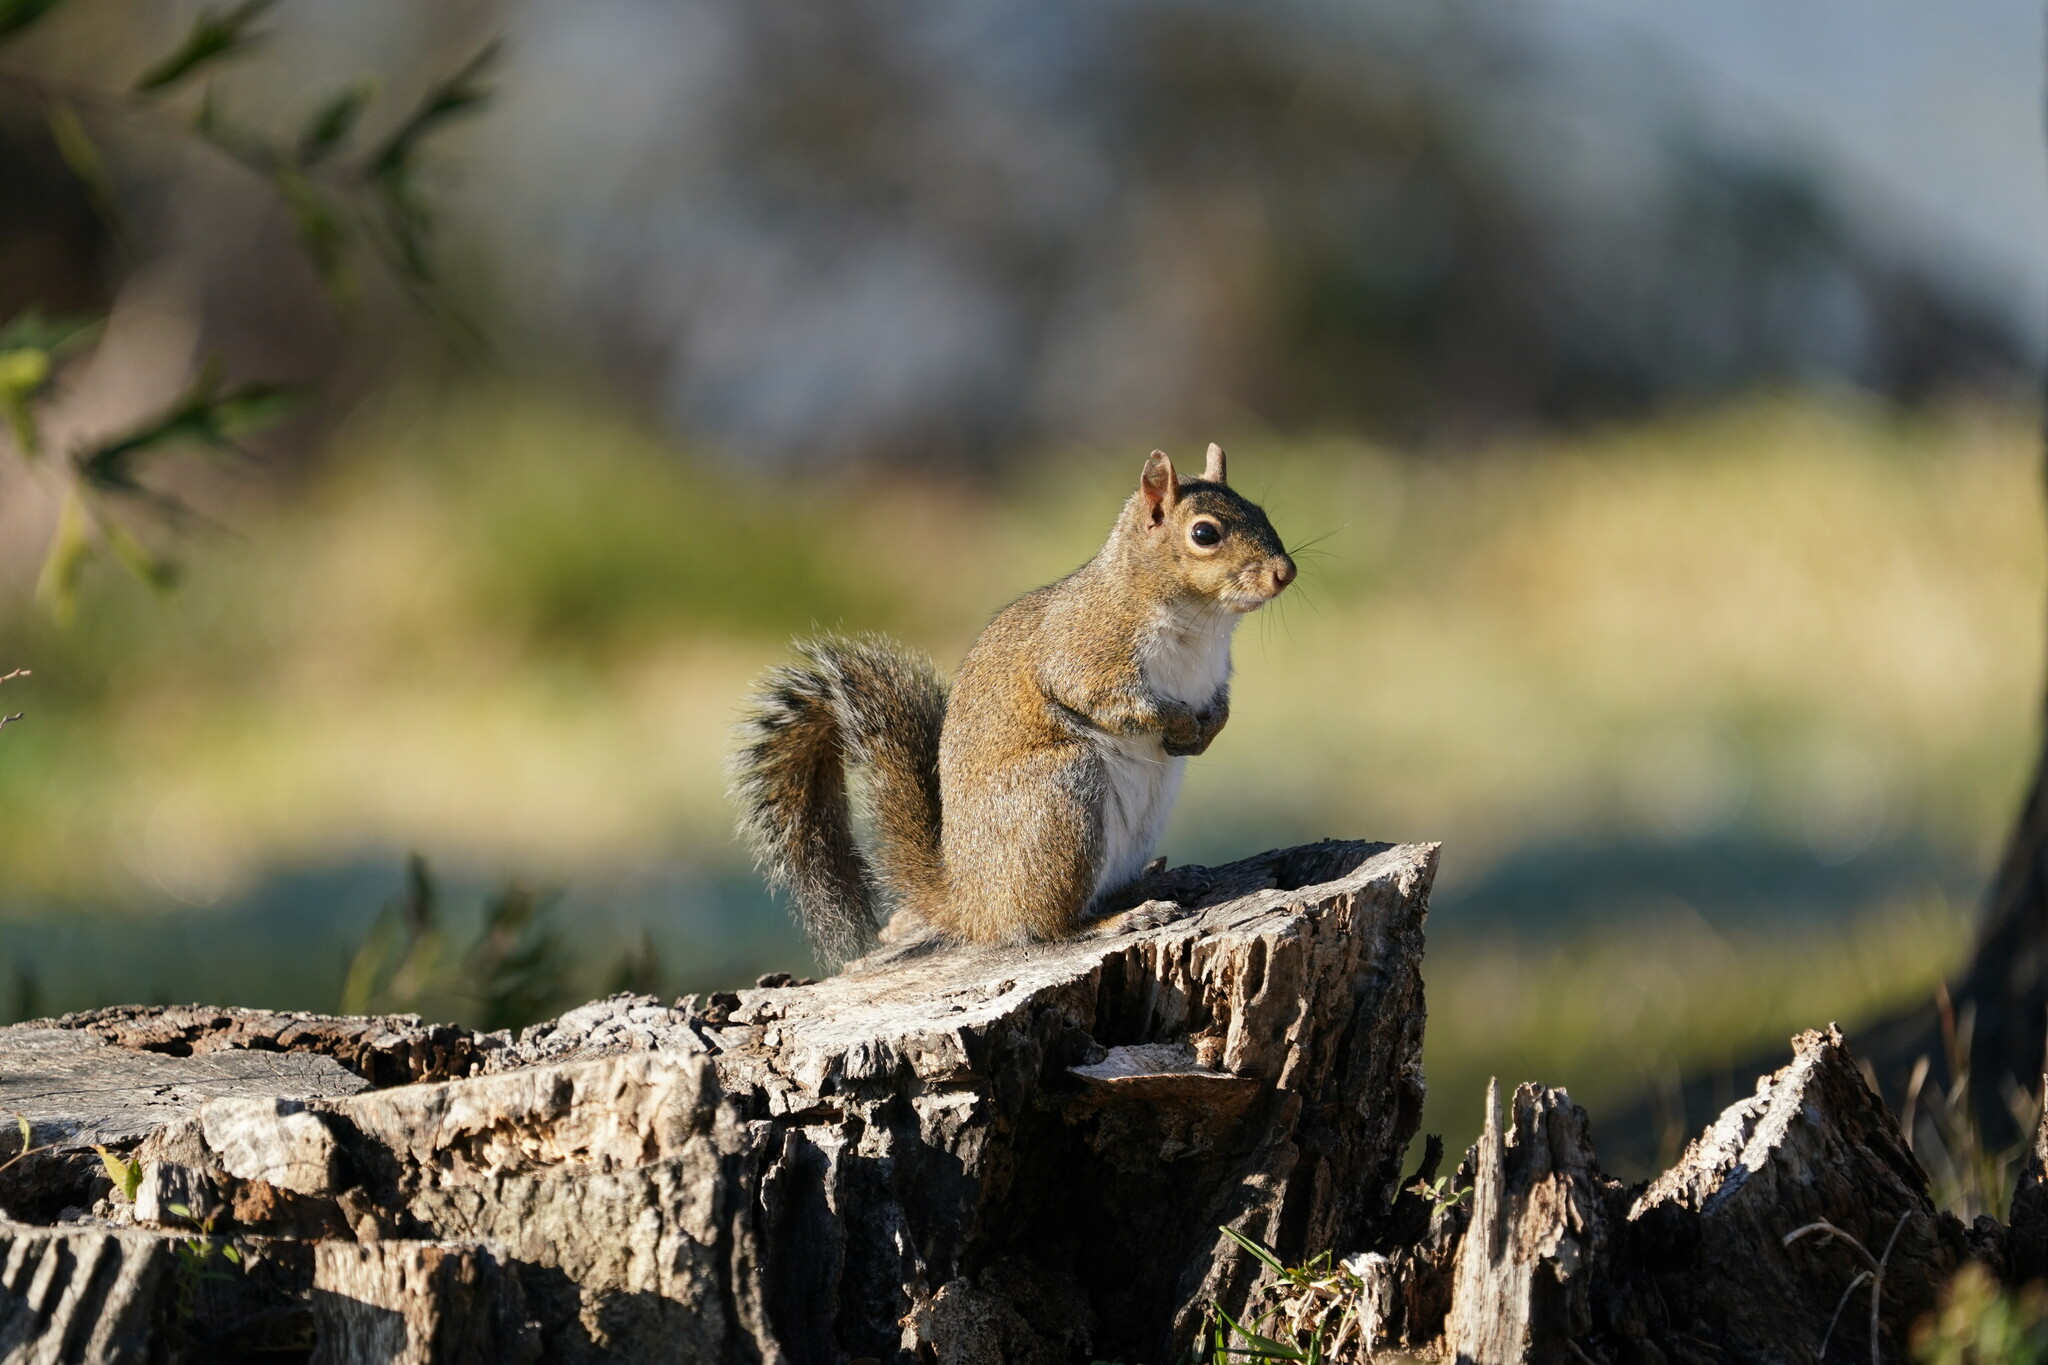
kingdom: Animalia
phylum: Chordata
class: Mammalia
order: Rodentia
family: Sciuridae
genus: Sciurus
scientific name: Sciurus carolinensis
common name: Eastern gray squirrel
